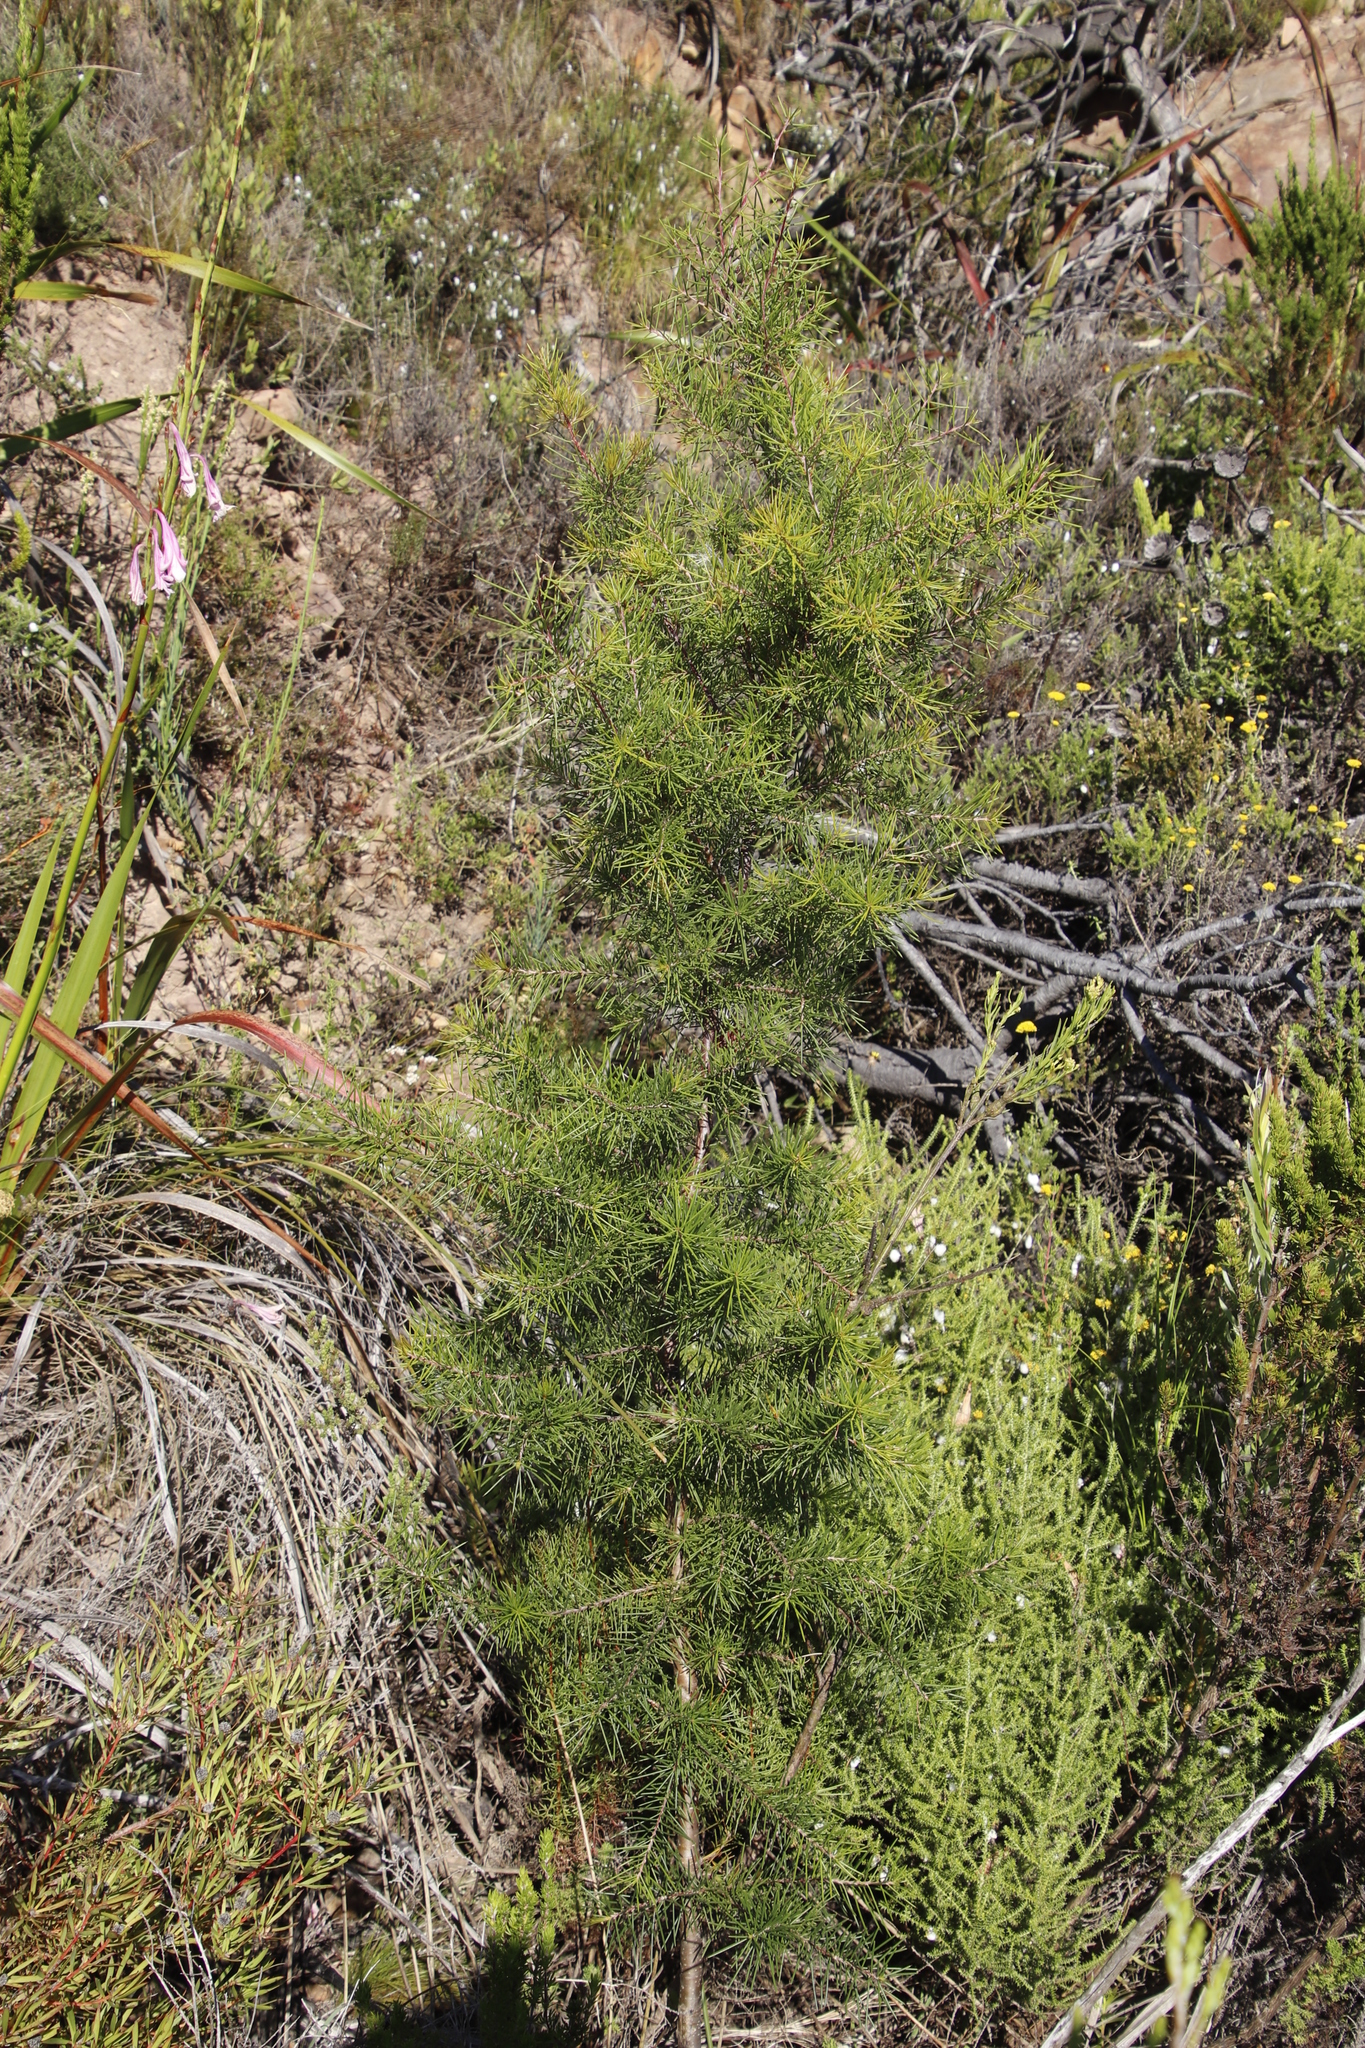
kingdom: Plantae
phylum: Tracheophyta
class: Magnoliopsida
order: Proteales
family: Proteaceae
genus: Hakea
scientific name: Hakea sericea
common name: Needle bush
